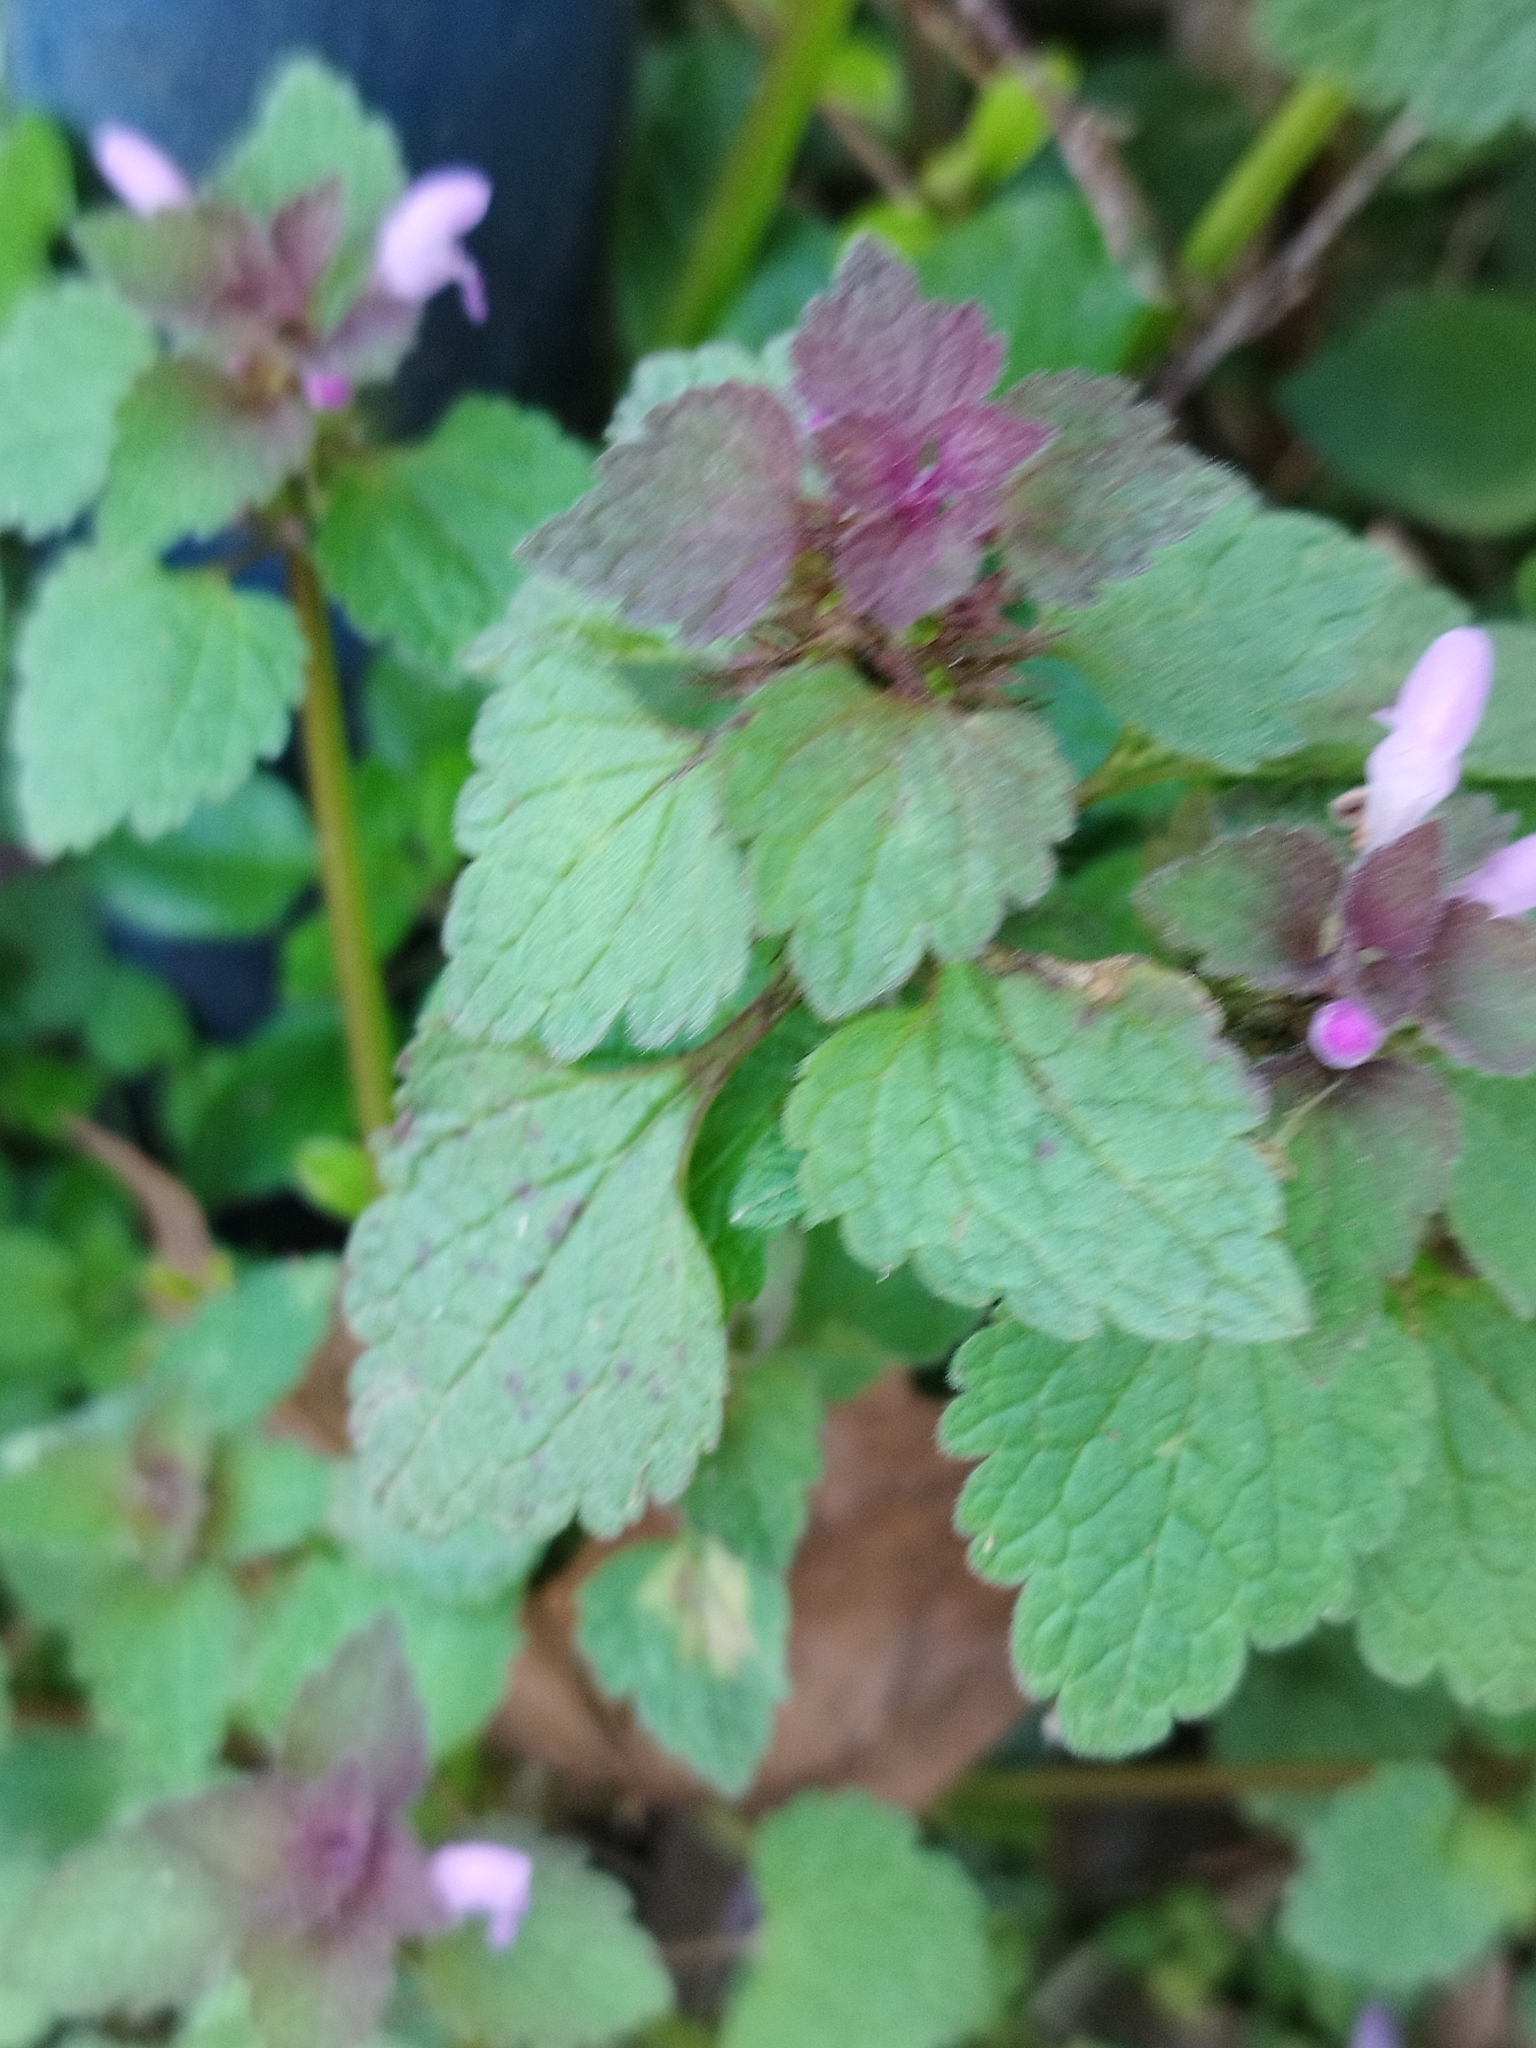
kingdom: Plantae
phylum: Tracheophyta
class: Magnoliopsida
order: Lamiales
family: Lamiaceae
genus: Lamium
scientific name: Lamium purpureum
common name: Red dead-nettle
